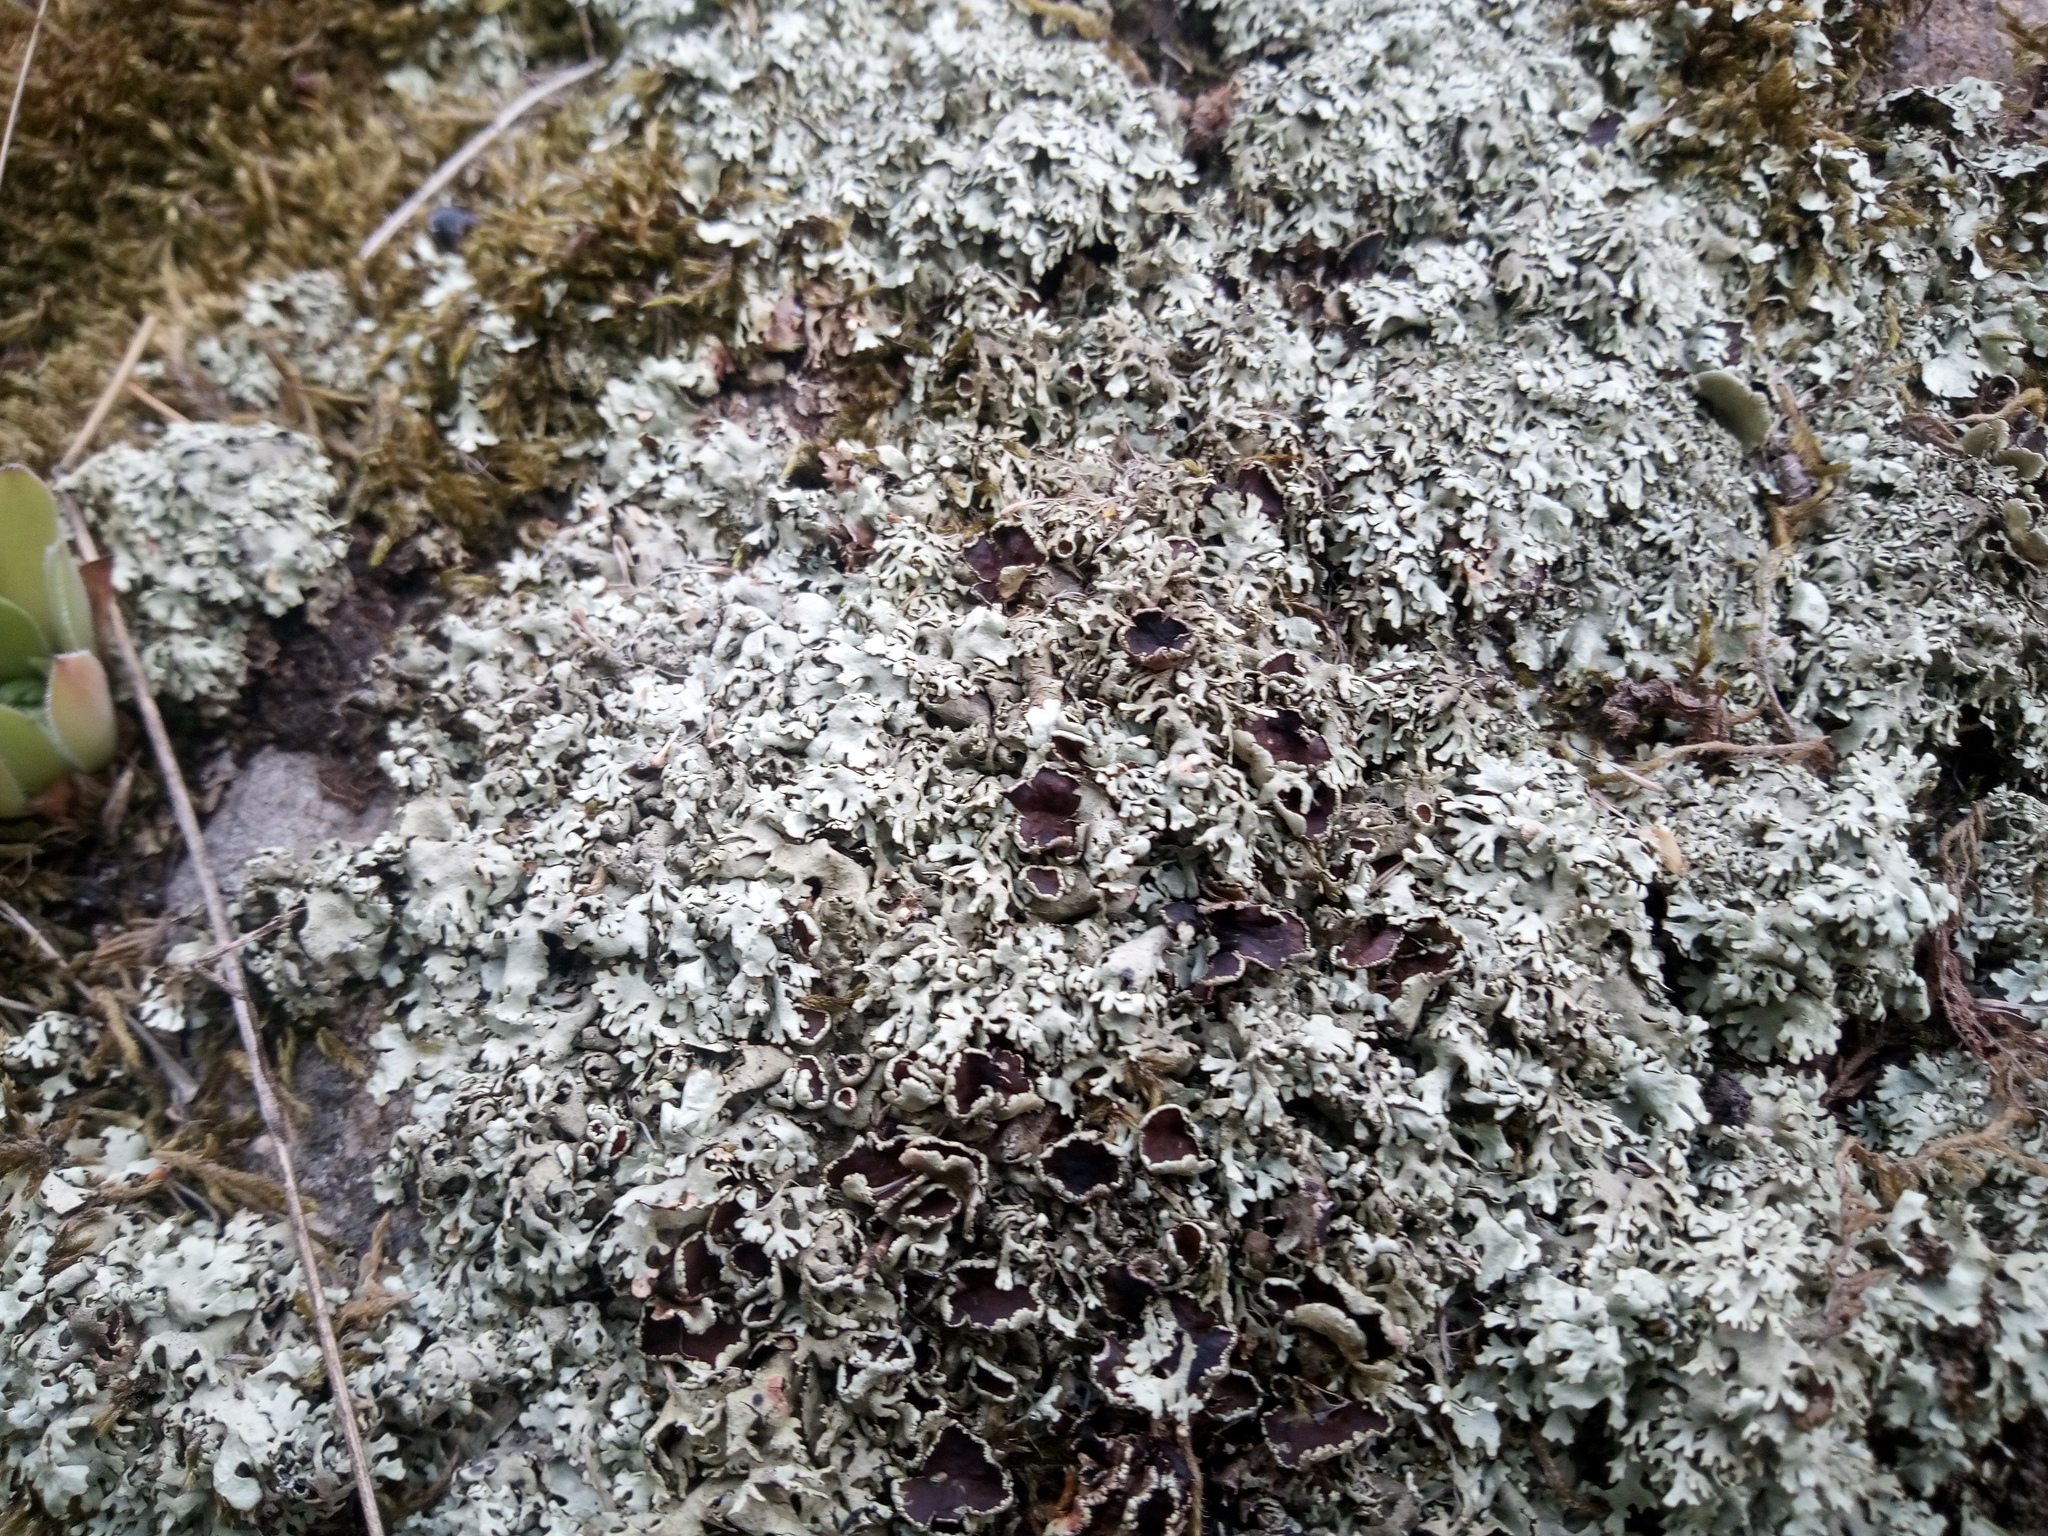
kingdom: Fungi
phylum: Ascomycota
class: Lecanoromycetes
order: Lecanorales
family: Parmeliaceae
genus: Xanthoparmelia
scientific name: Xanthoparmelia stenophylla
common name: Shingled rock shield
